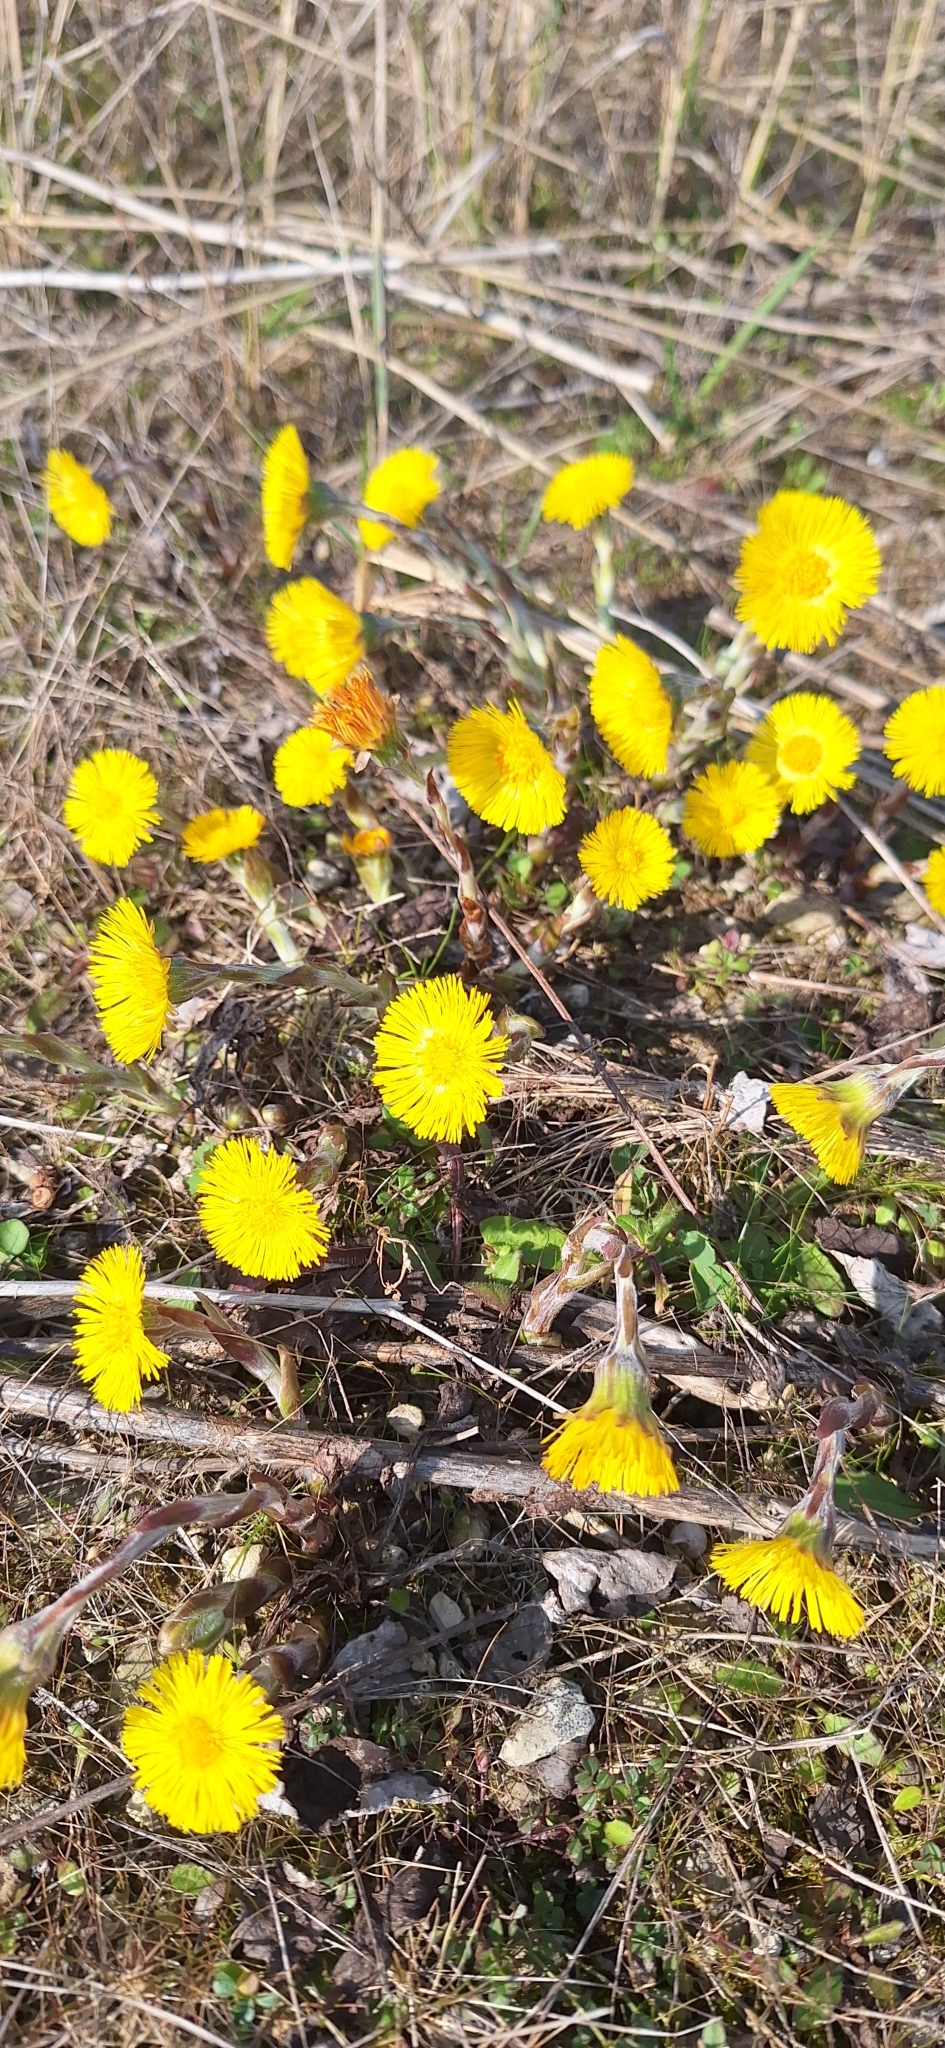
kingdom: Plantae
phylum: Tracheophyta
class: Magnoliopsida
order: Asterales
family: Asteraceae
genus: Tussilago
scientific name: Tussilago farfara
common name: Coltsfoot
